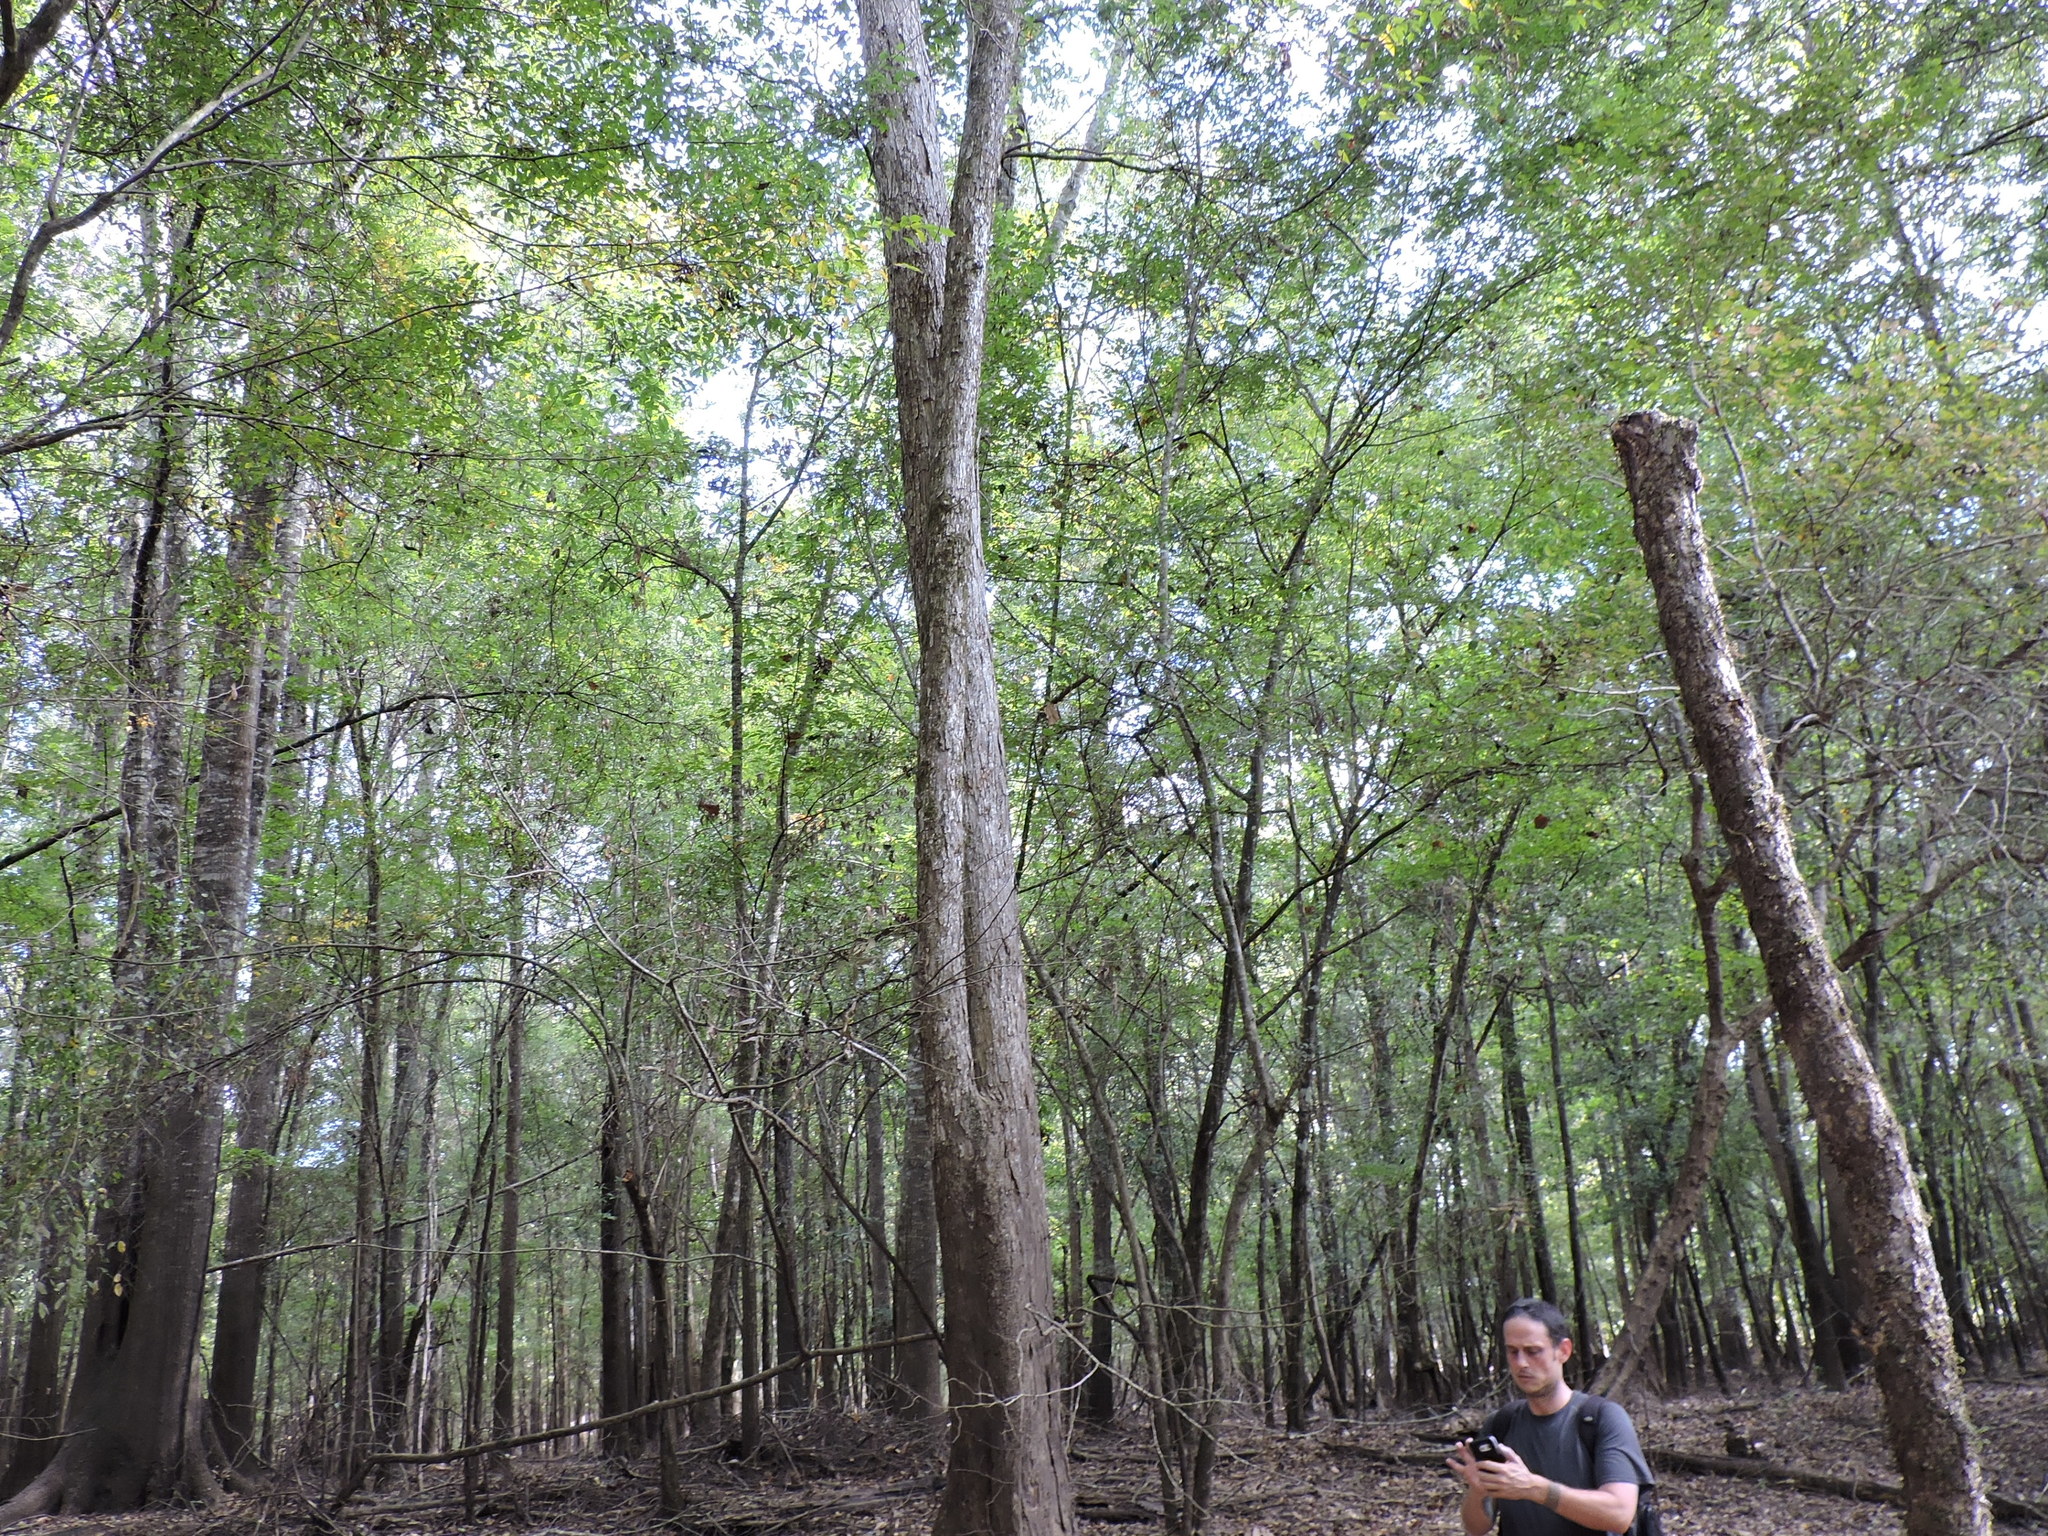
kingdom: Plantae
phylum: Tracheophyta
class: Magnoliopsida
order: Fagales
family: Juglandaceae
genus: Carya
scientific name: Carya aquatica
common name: Water hickory
